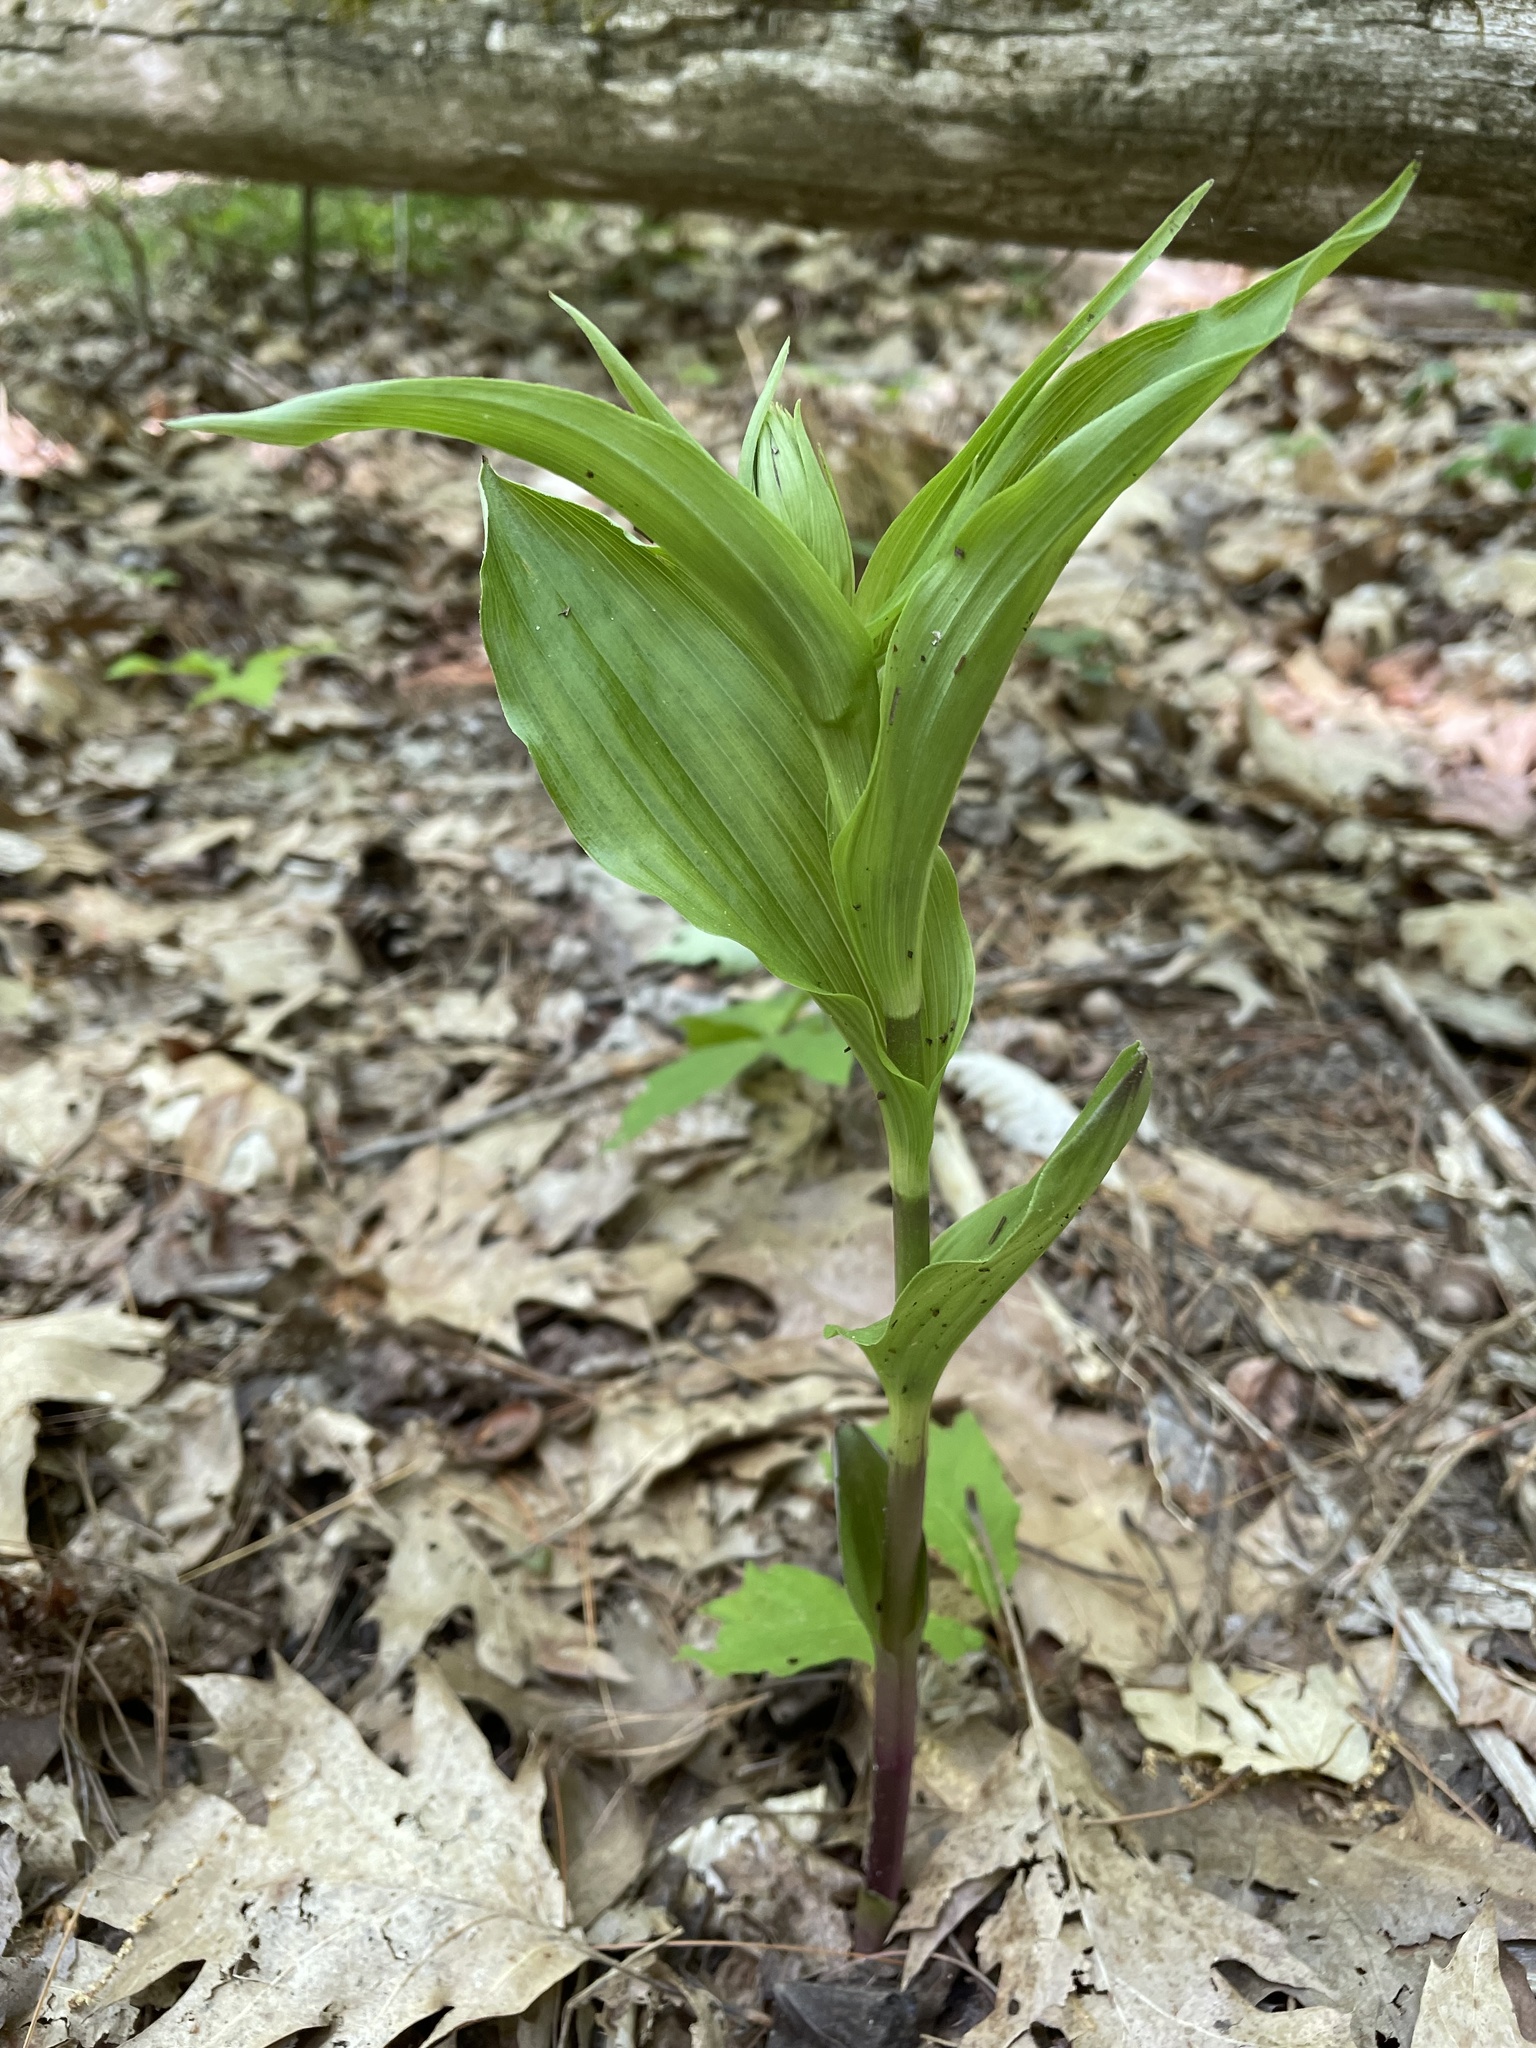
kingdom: Plantae
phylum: Tracheophyta
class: Liliopsida
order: Asparagales
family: Orchidaceae
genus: Epipactis
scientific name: Epipactis helleborine
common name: Broad-leaved helleborine
